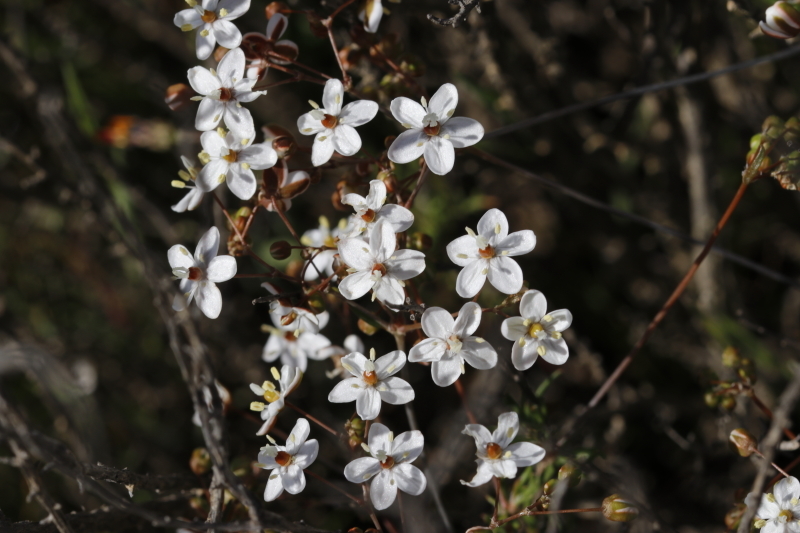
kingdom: Plantae
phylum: Tracheophyta
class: Magnoliopsida
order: Caryophyllales
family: Molluginaceae
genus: Pharnaceum
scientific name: Pharnaceum aurantium
